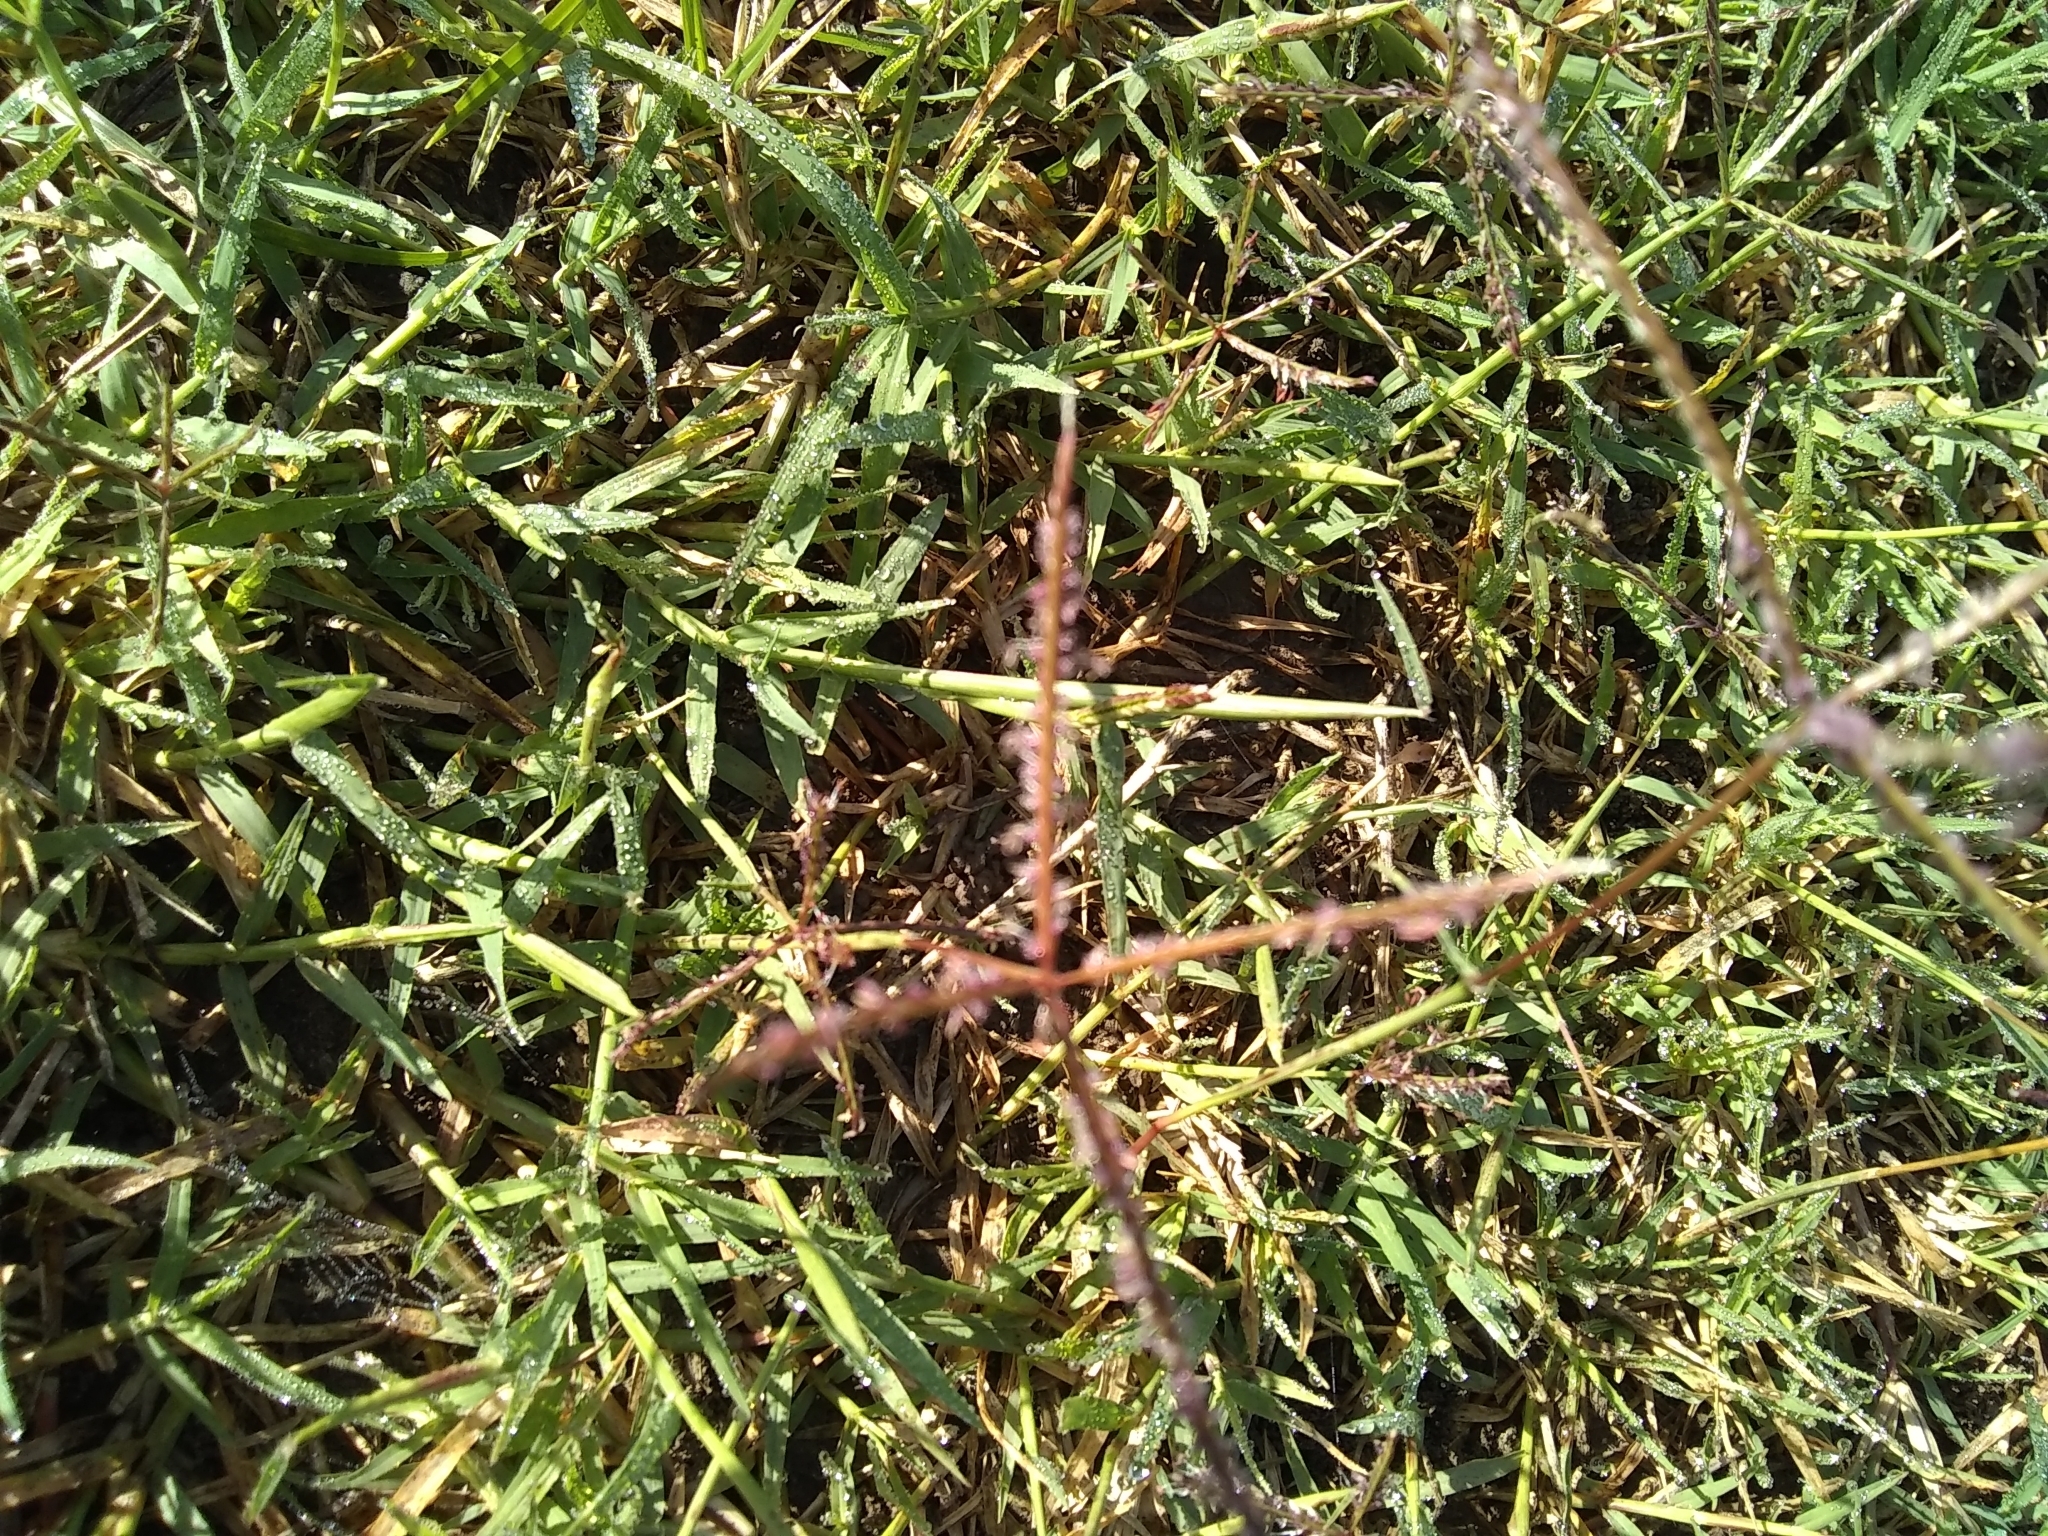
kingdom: Plantae
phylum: Tracheophyta
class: Liliopsida
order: Poales
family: Poaceae
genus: Cynodon
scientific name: Cynodon dactylon
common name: Bermuda grass
